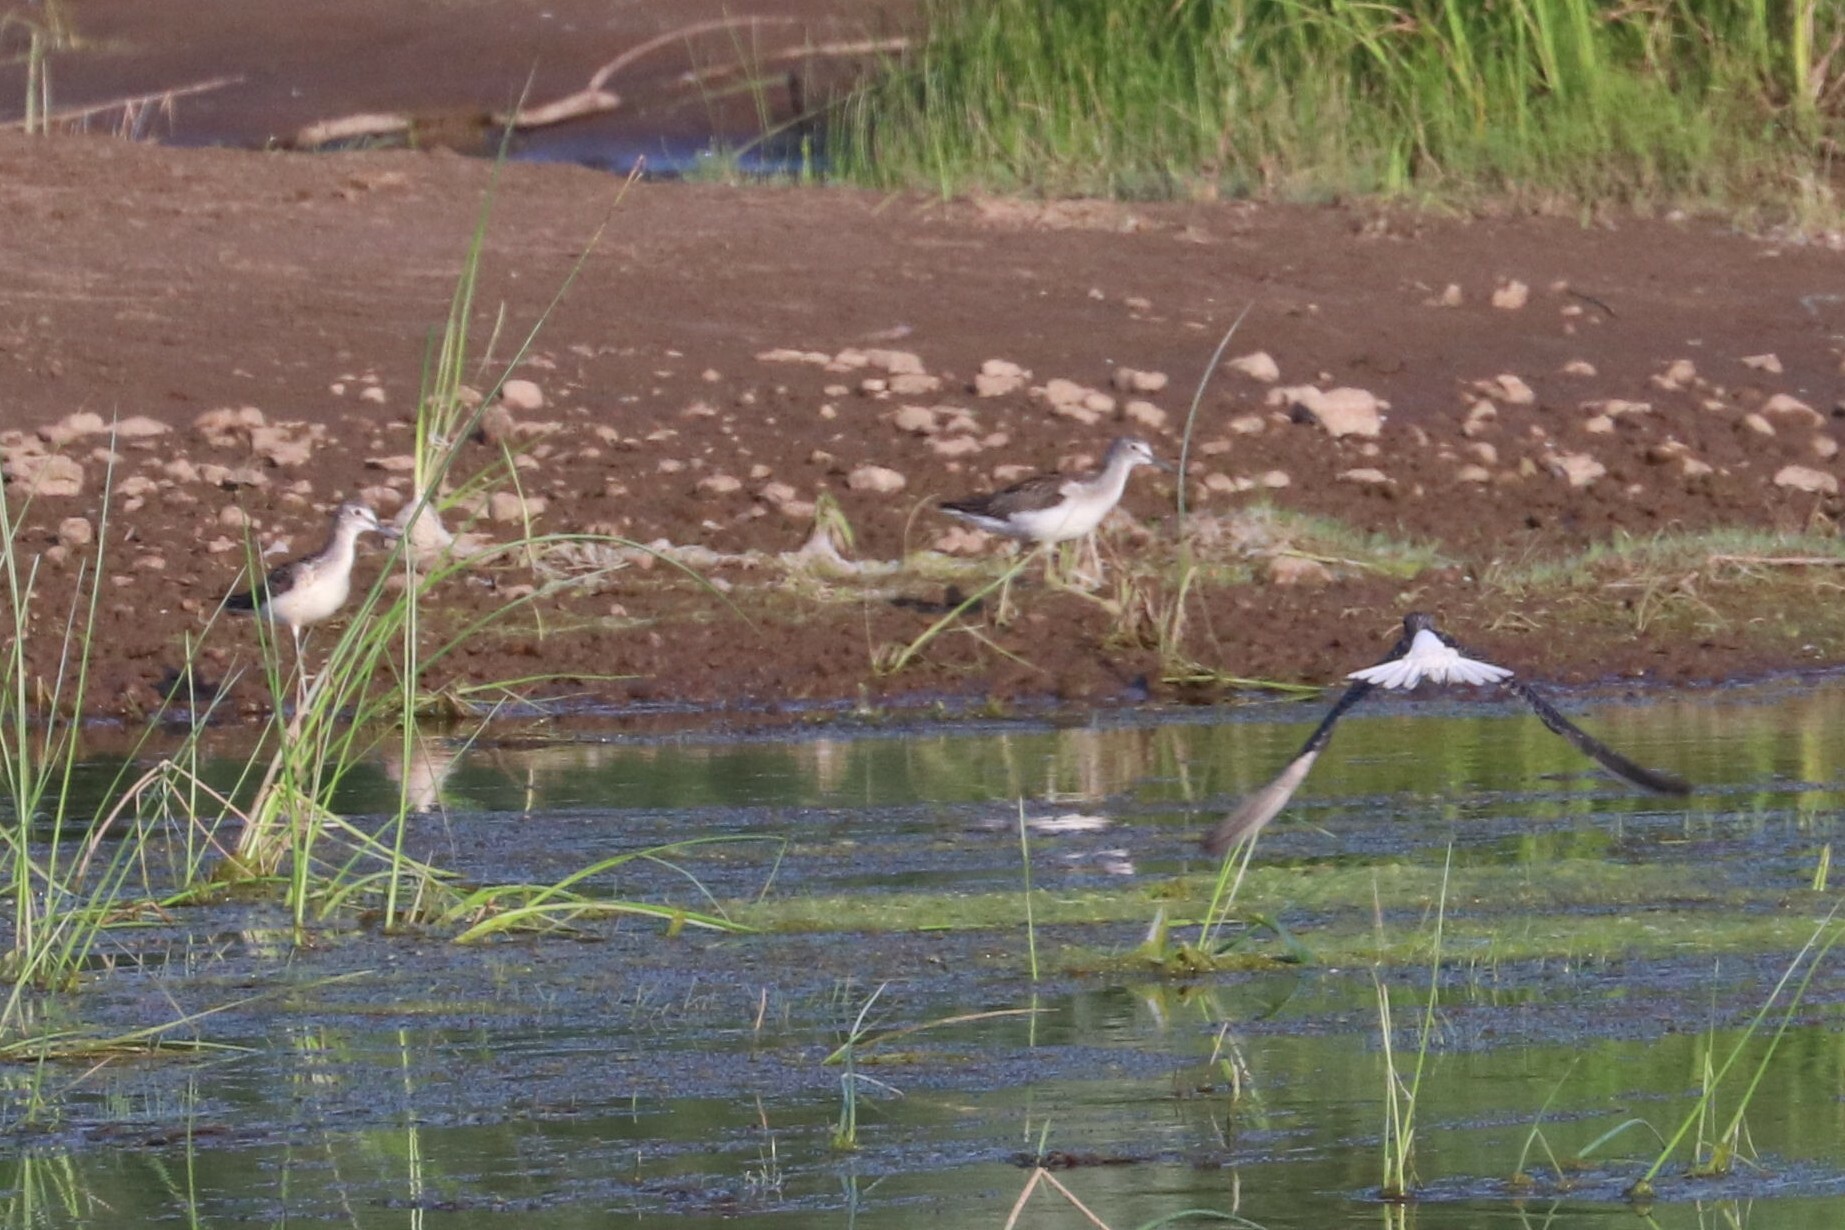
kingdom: Animalia
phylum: Chordata
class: Aves
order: Charadriiformes
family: Scolopacidae
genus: Tringa
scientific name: Tringa nebularia
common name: Common greenshank
